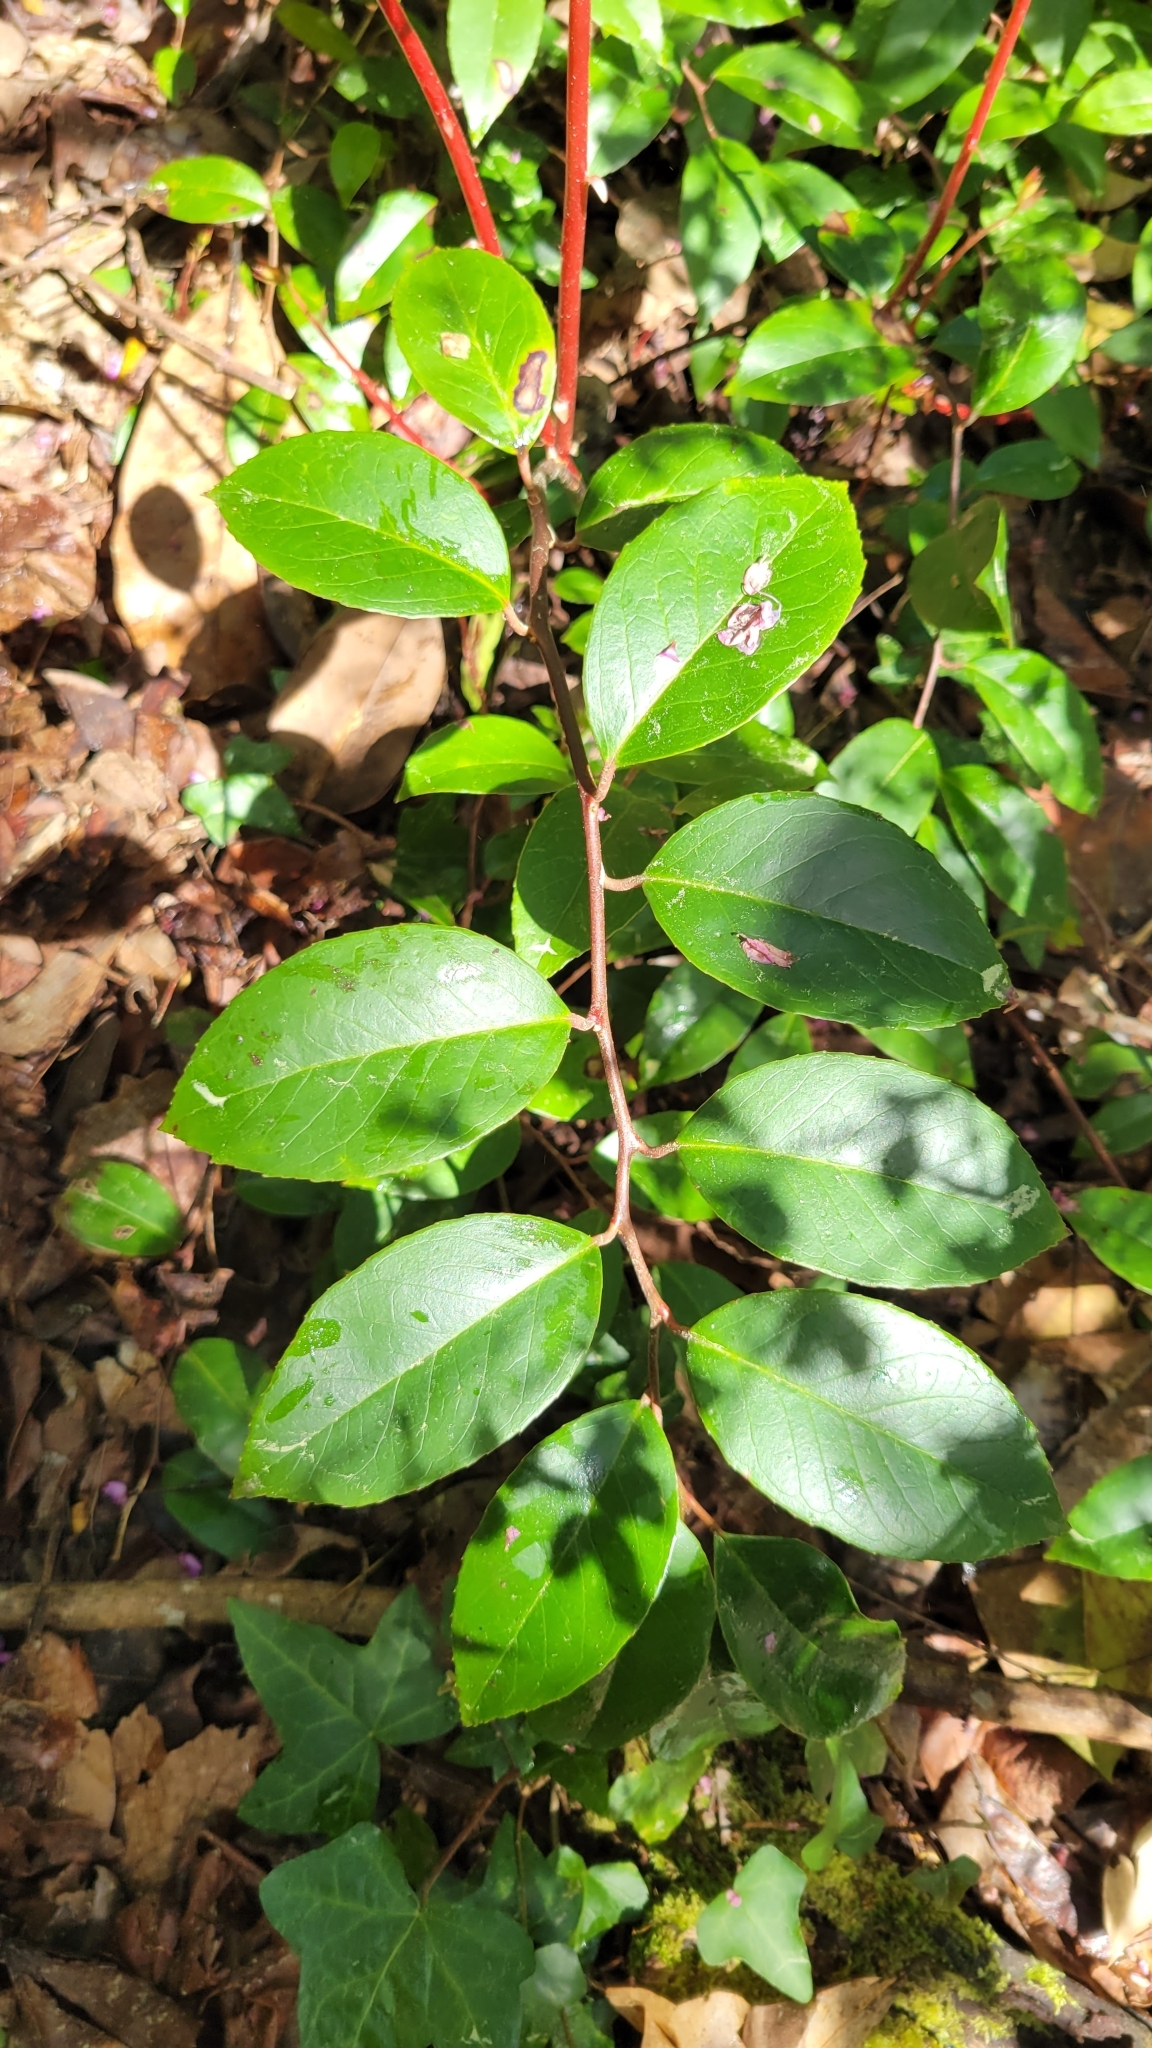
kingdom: Plantae
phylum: Tracheophyta
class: Magnoliopsida
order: Ericales
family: Ericaceae
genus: Leucothoe
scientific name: Leucothoe axillaris
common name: Leucothoe
